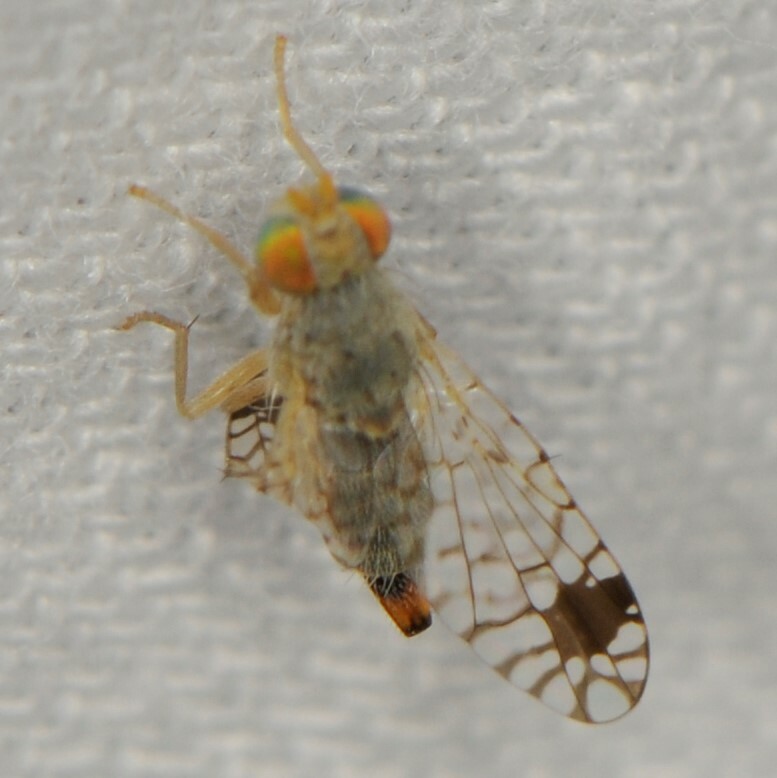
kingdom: Animalia
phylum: Arthropoda
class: Insecta
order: Diptera
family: Tephritidae
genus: Euarestoides
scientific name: Euarestoides acutangulus
